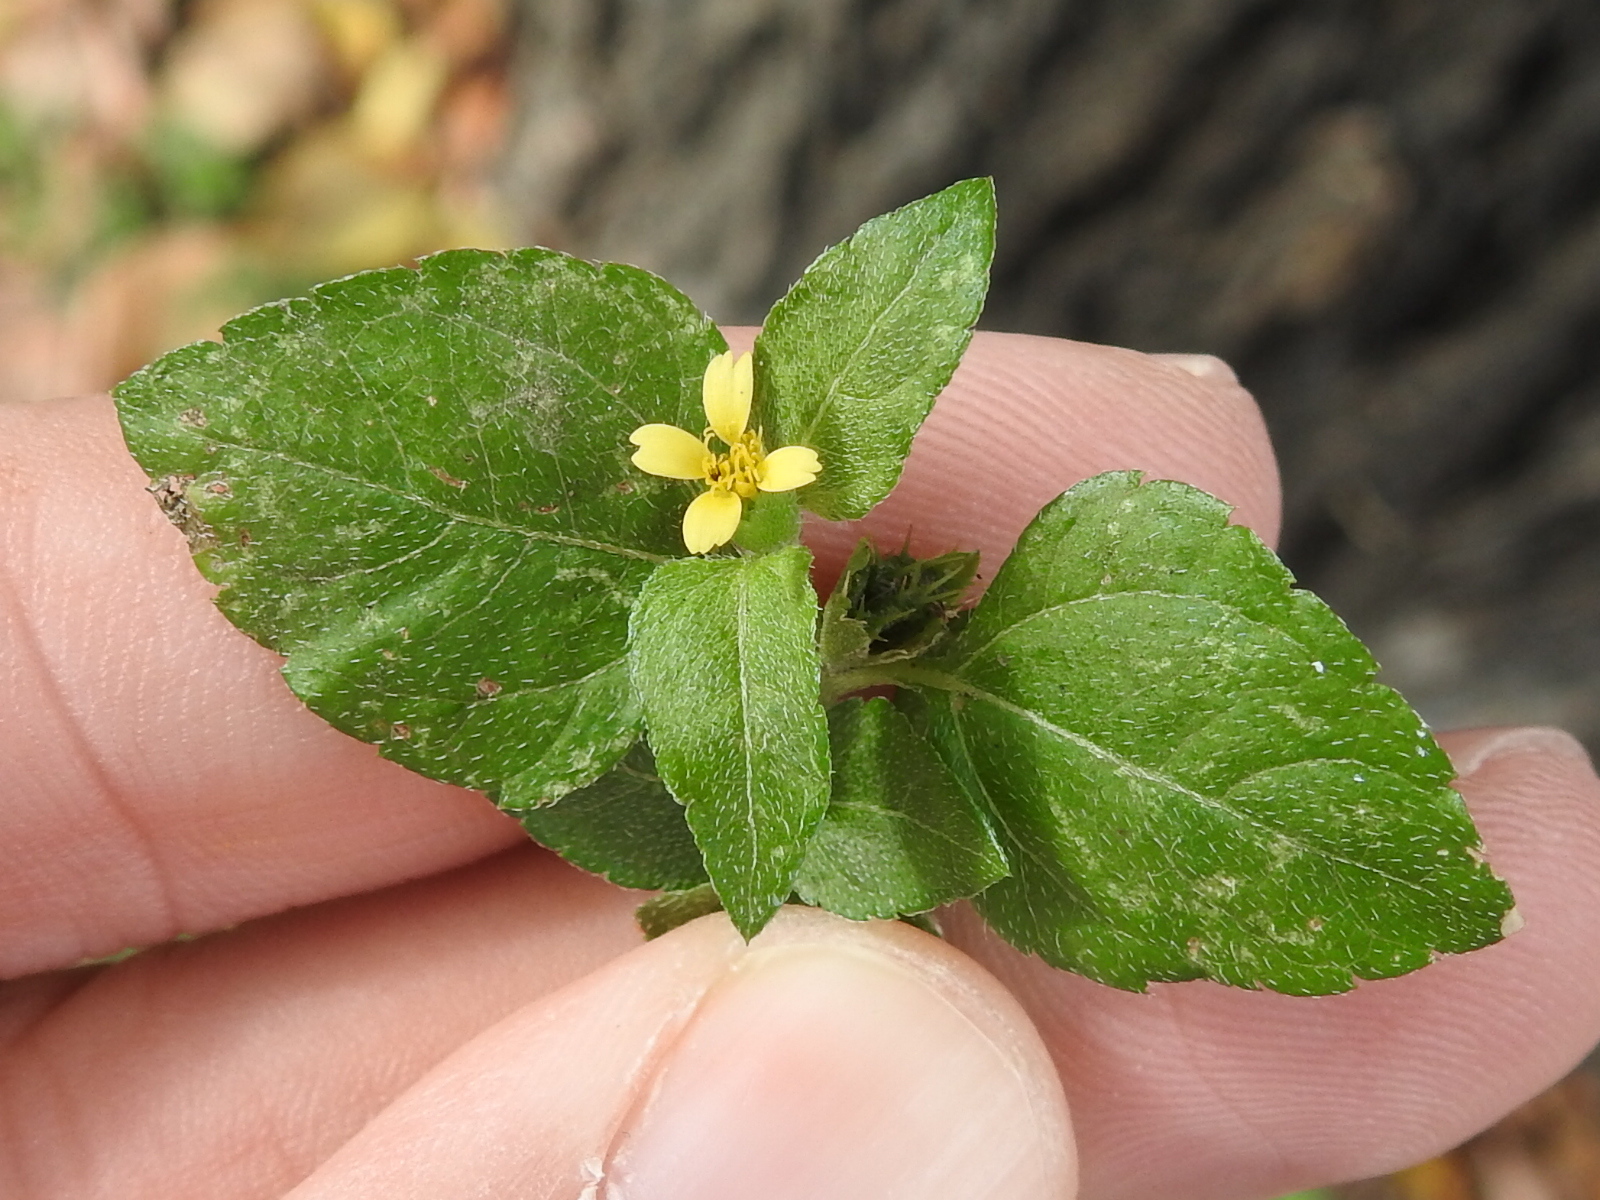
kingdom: Plantae
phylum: Tracheophyta
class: Magnoliopsida
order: Asterales
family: Asteraceae
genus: Calyptocarpus
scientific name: Calyptocarpus vialis
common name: Straggler daisy
